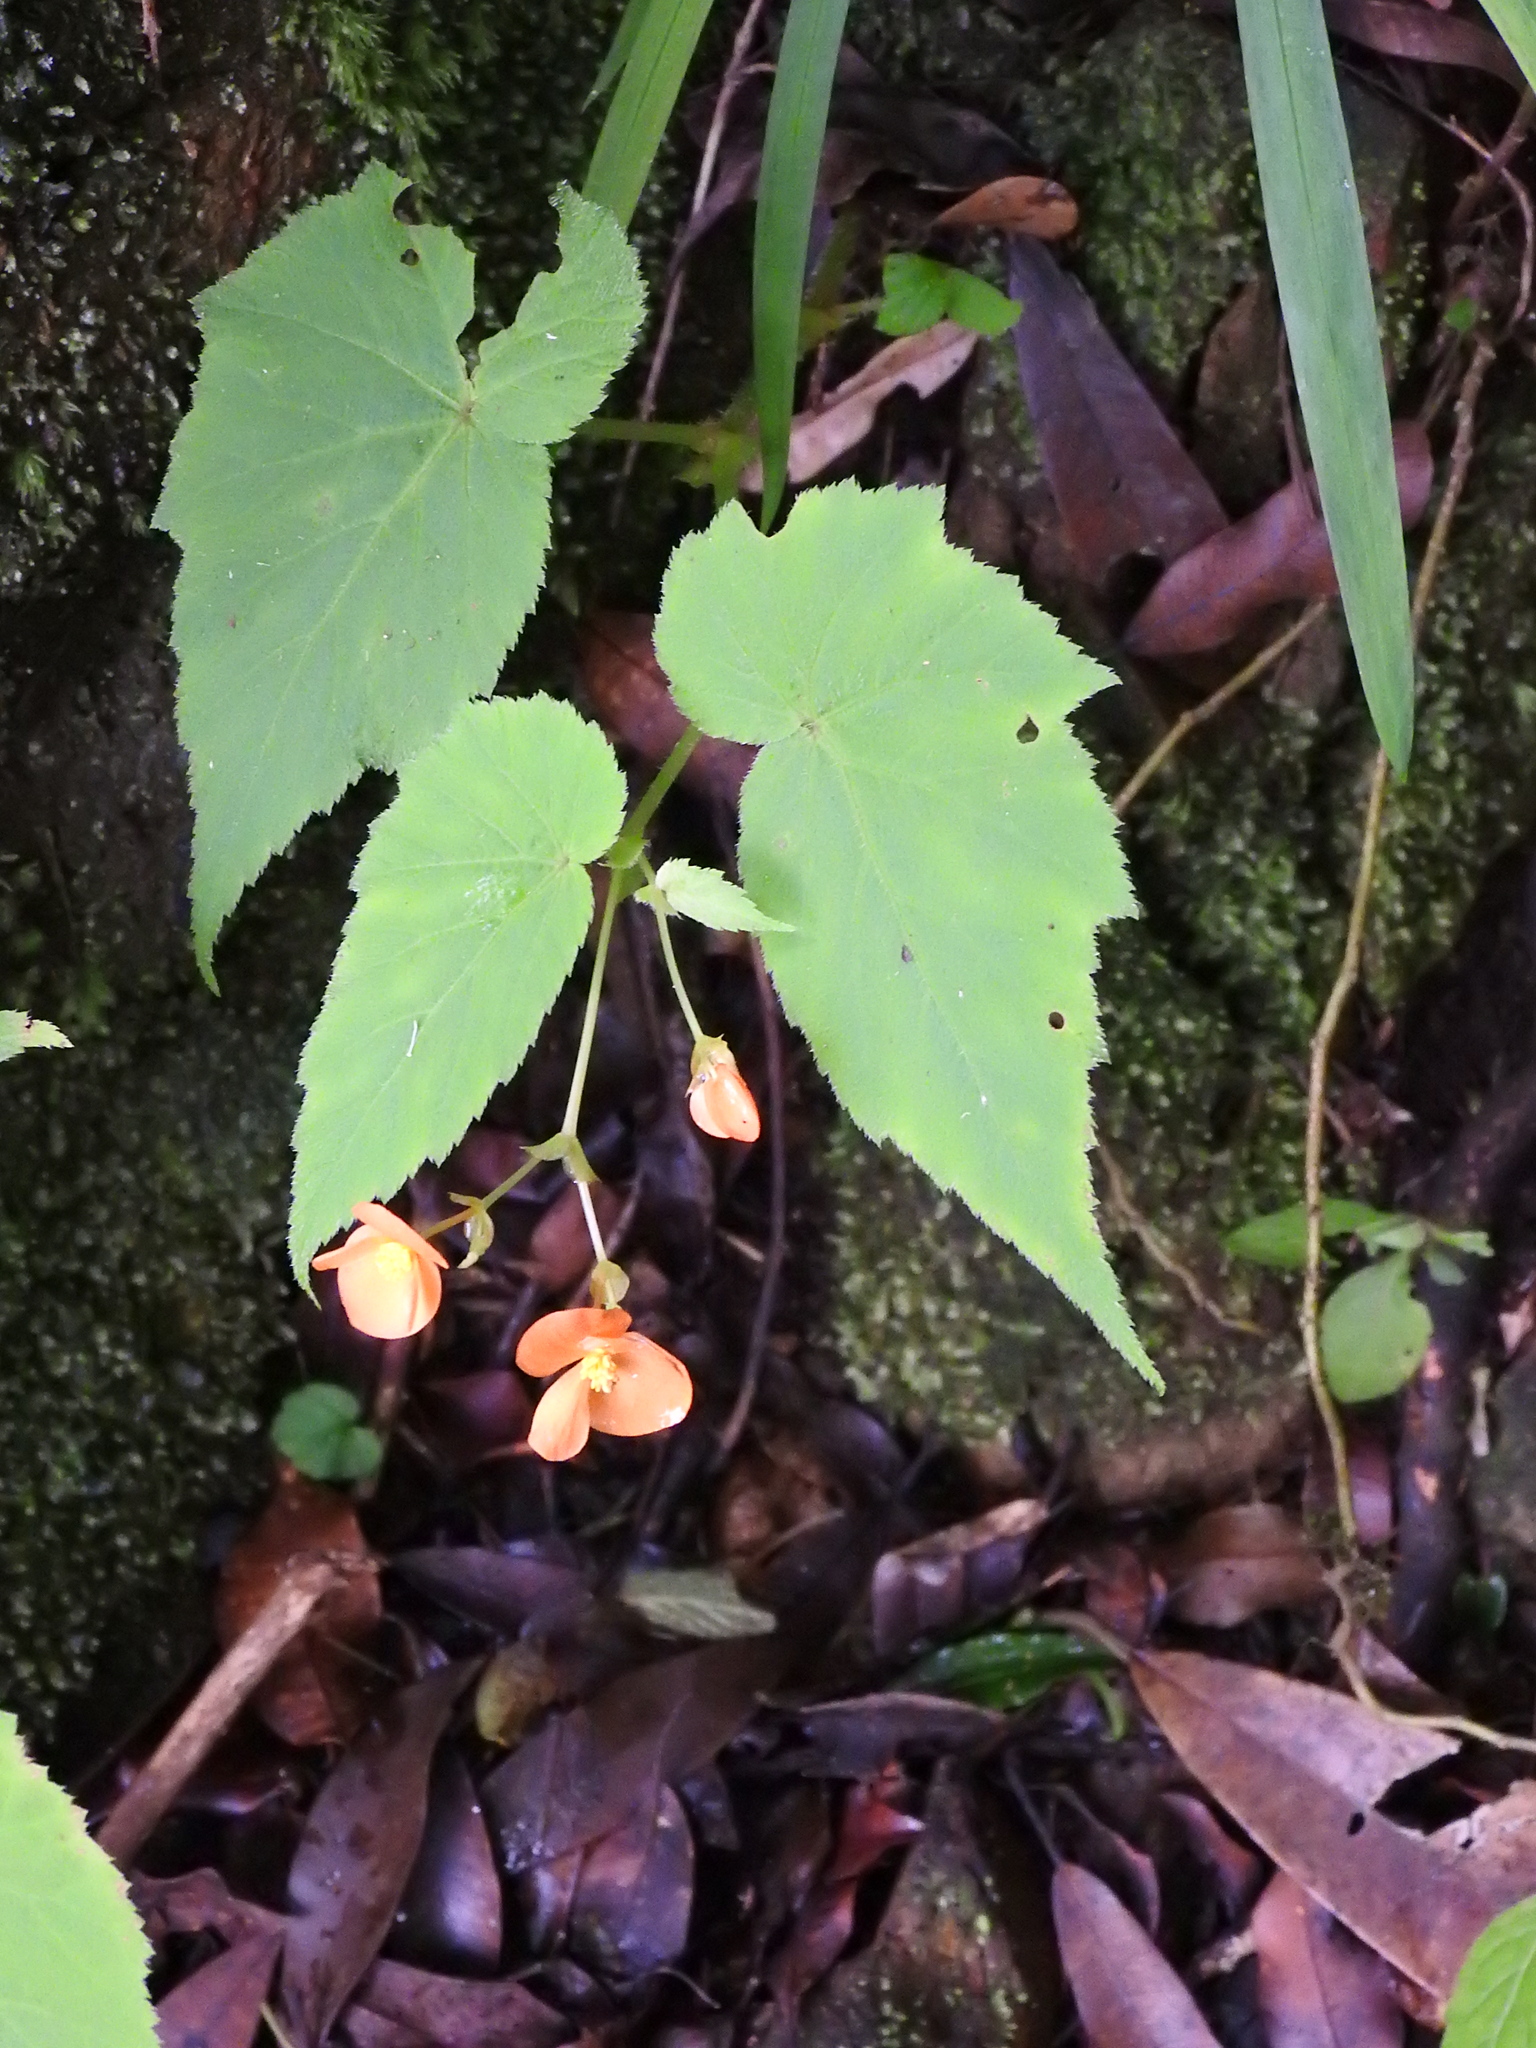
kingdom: Plantae
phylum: Tracheophyta
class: Magnoliopsida
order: Cucurbitales
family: Begoniaceae
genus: Begonia
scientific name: Begonia sutherlandii
